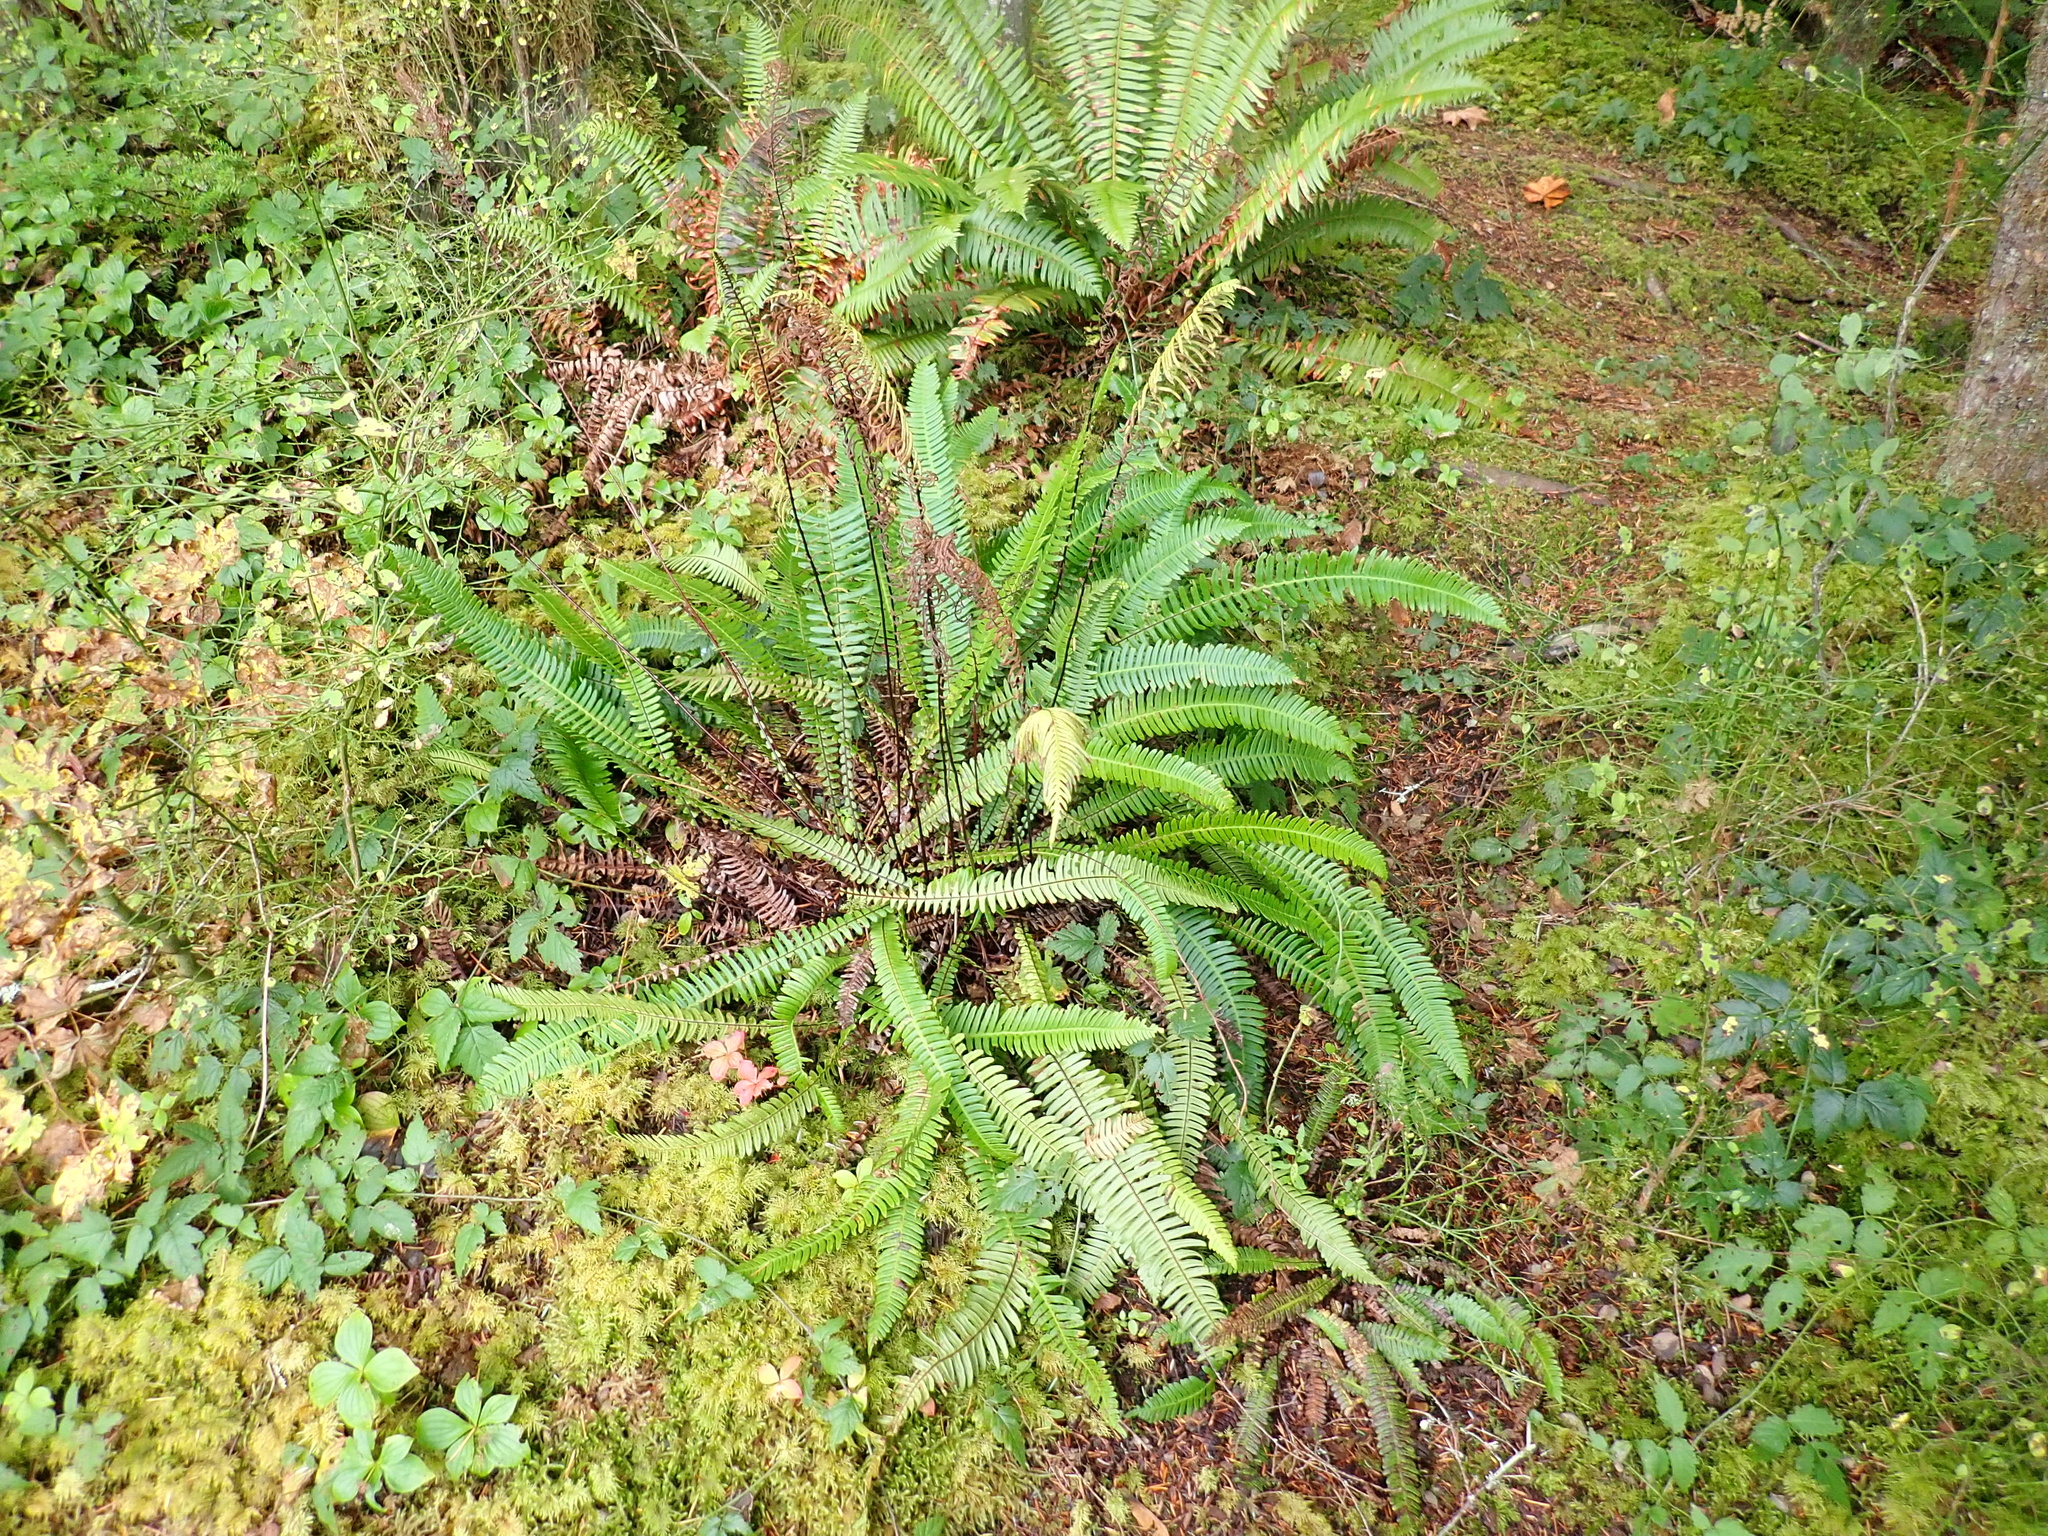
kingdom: Plantae
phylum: Tracheophyta
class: Polypodiopsida
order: Polypodiales
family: Blechnaceae
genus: Struthiopteris
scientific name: Struthiopteris spicant
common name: Deer fern
